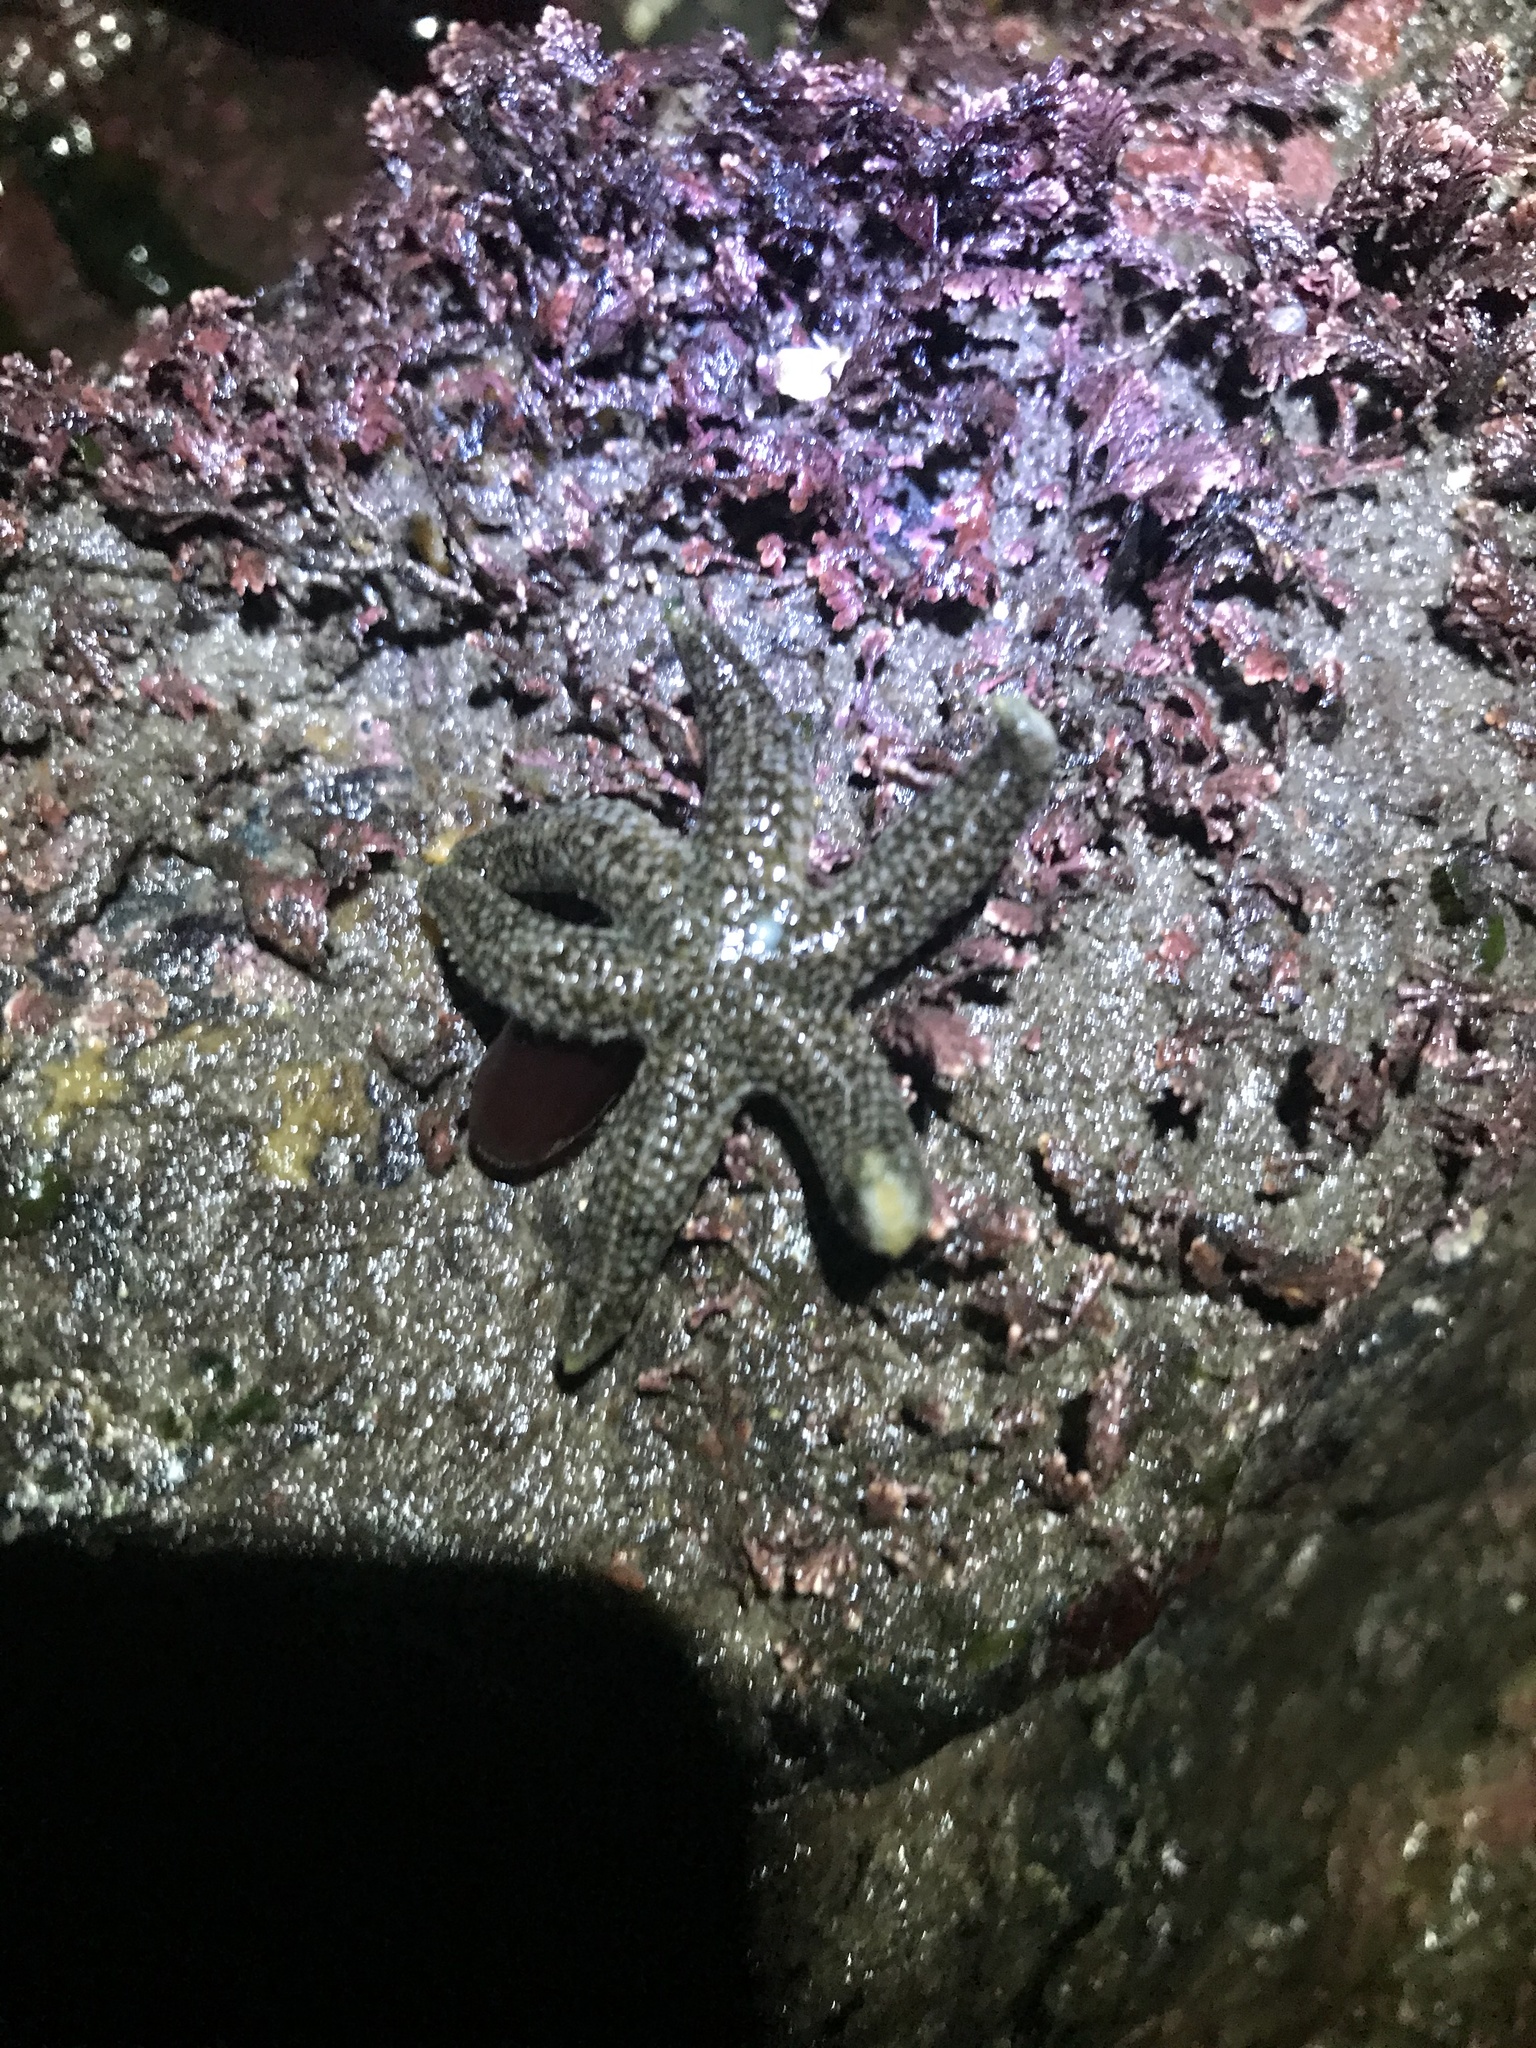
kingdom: Animalia
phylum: Echinodermata
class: Asteroidea
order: Forcipulatida
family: Asteriidae
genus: Leptasterias
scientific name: Leptasterias hexactis
